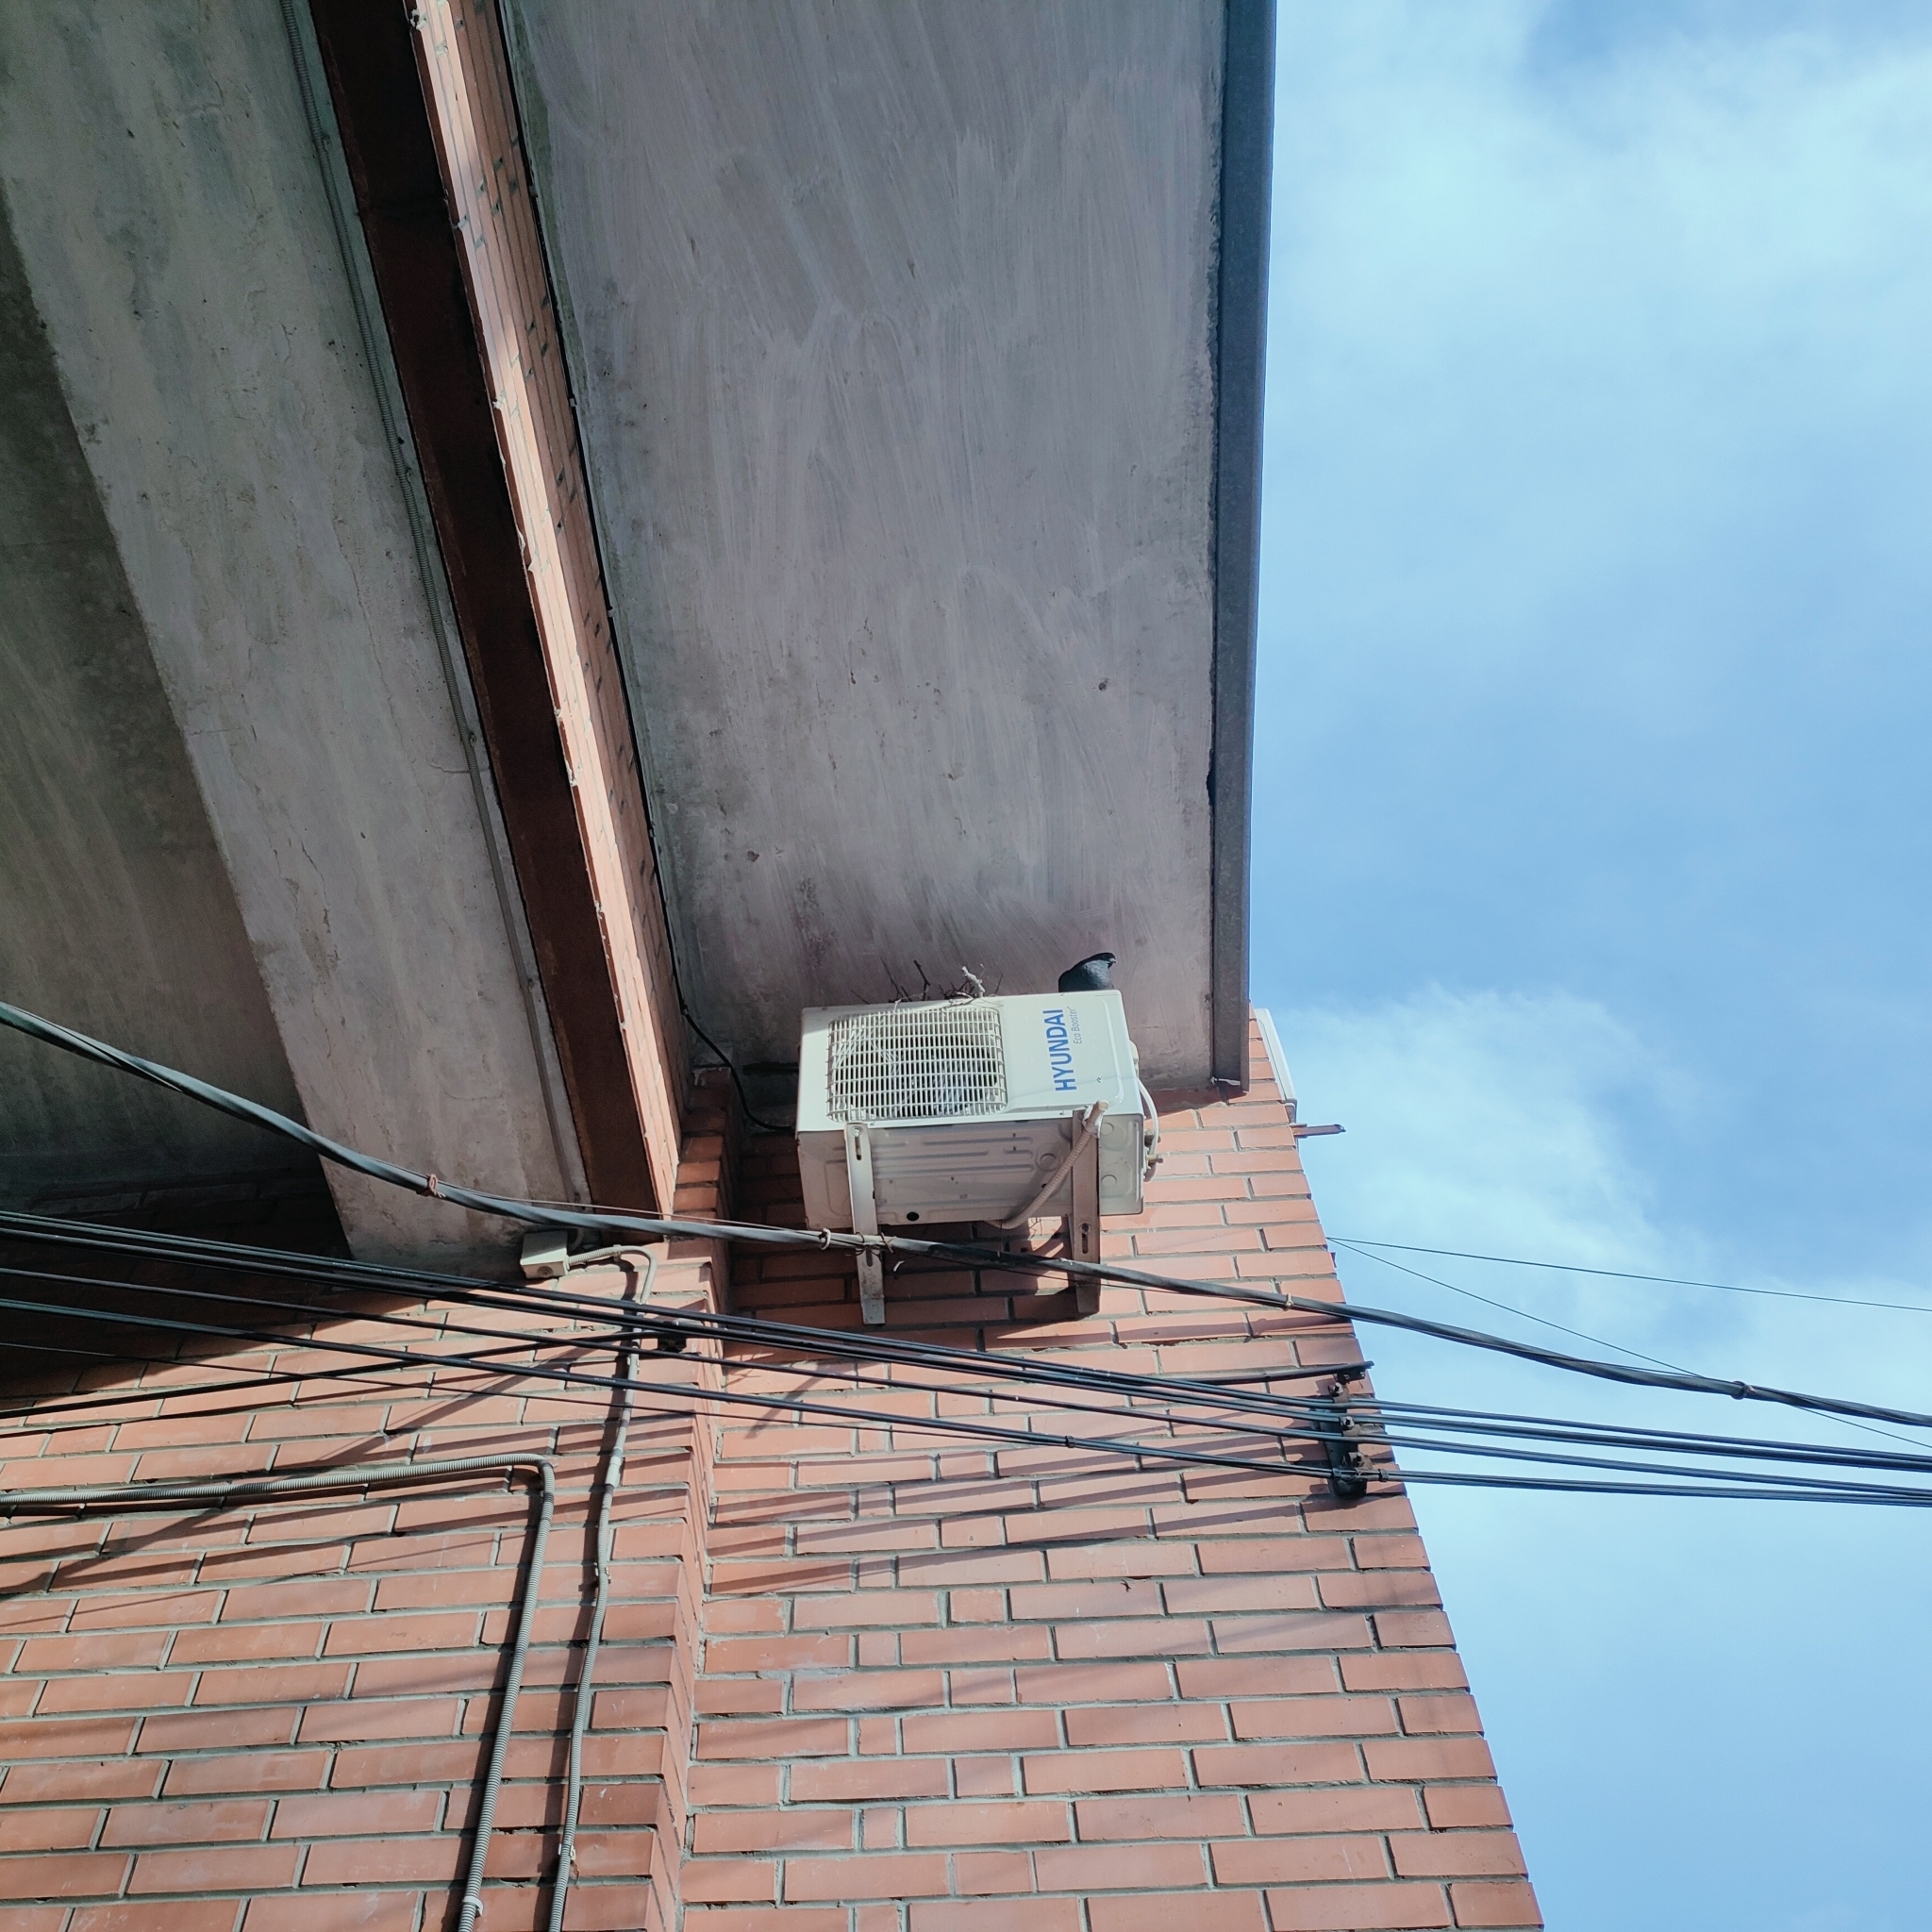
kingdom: Animalia
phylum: Chordata
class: Aves
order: Columbiformes
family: Columbidae
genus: Columba
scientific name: Columba livia
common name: Rock pigeon
